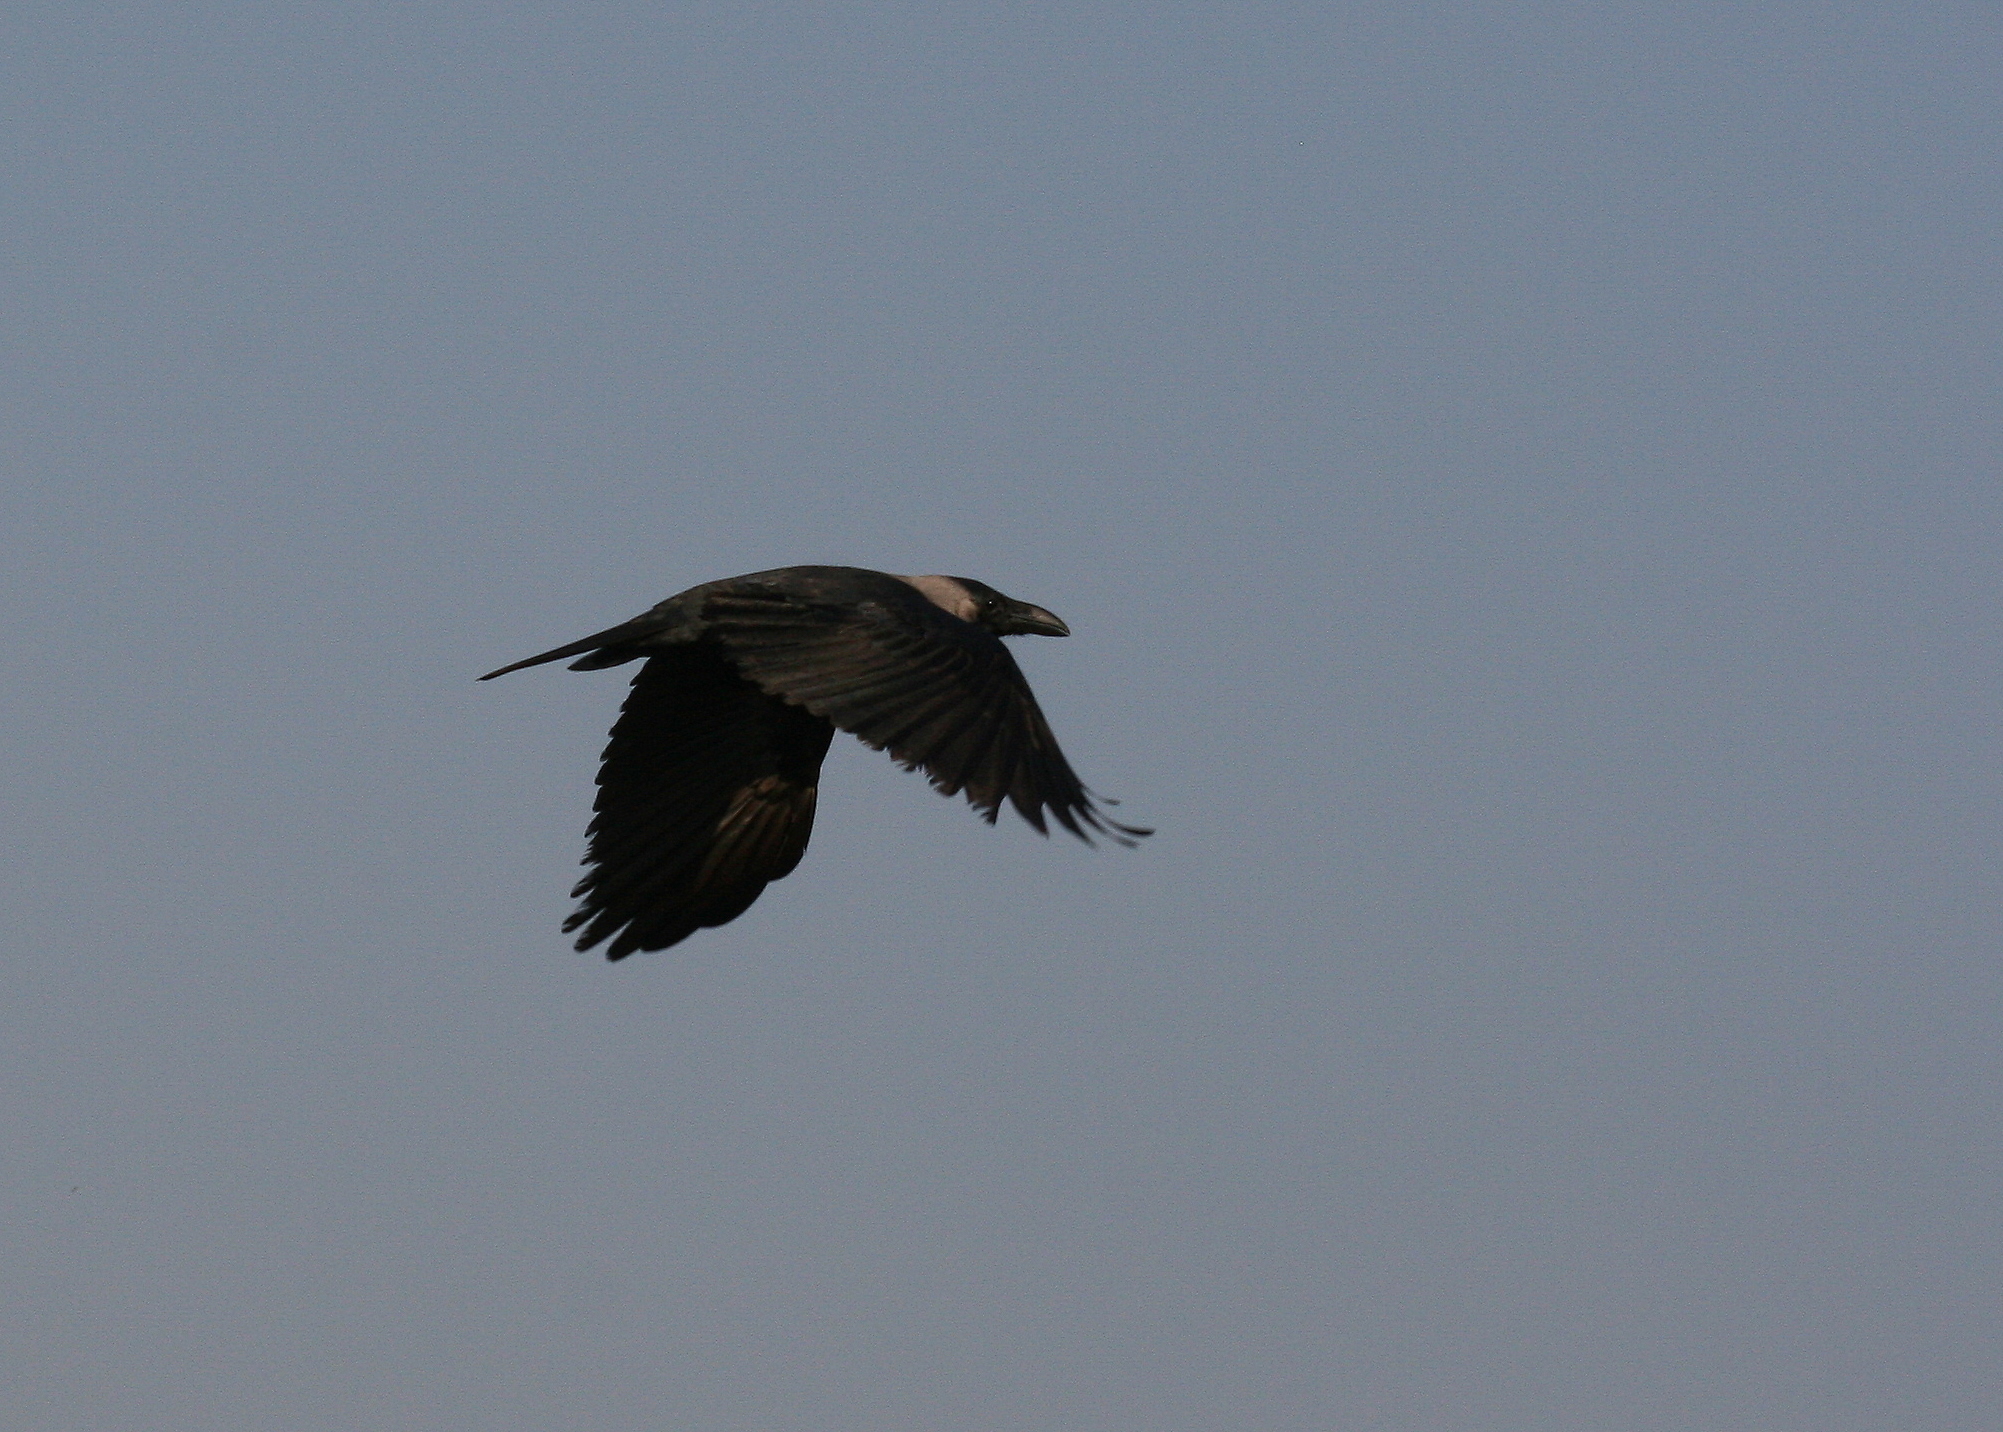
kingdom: Animalia
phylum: Chordata
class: Aves
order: Passeriformes
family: Corvidae
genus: Corvus
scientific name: Corvus splendens
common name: House crow
